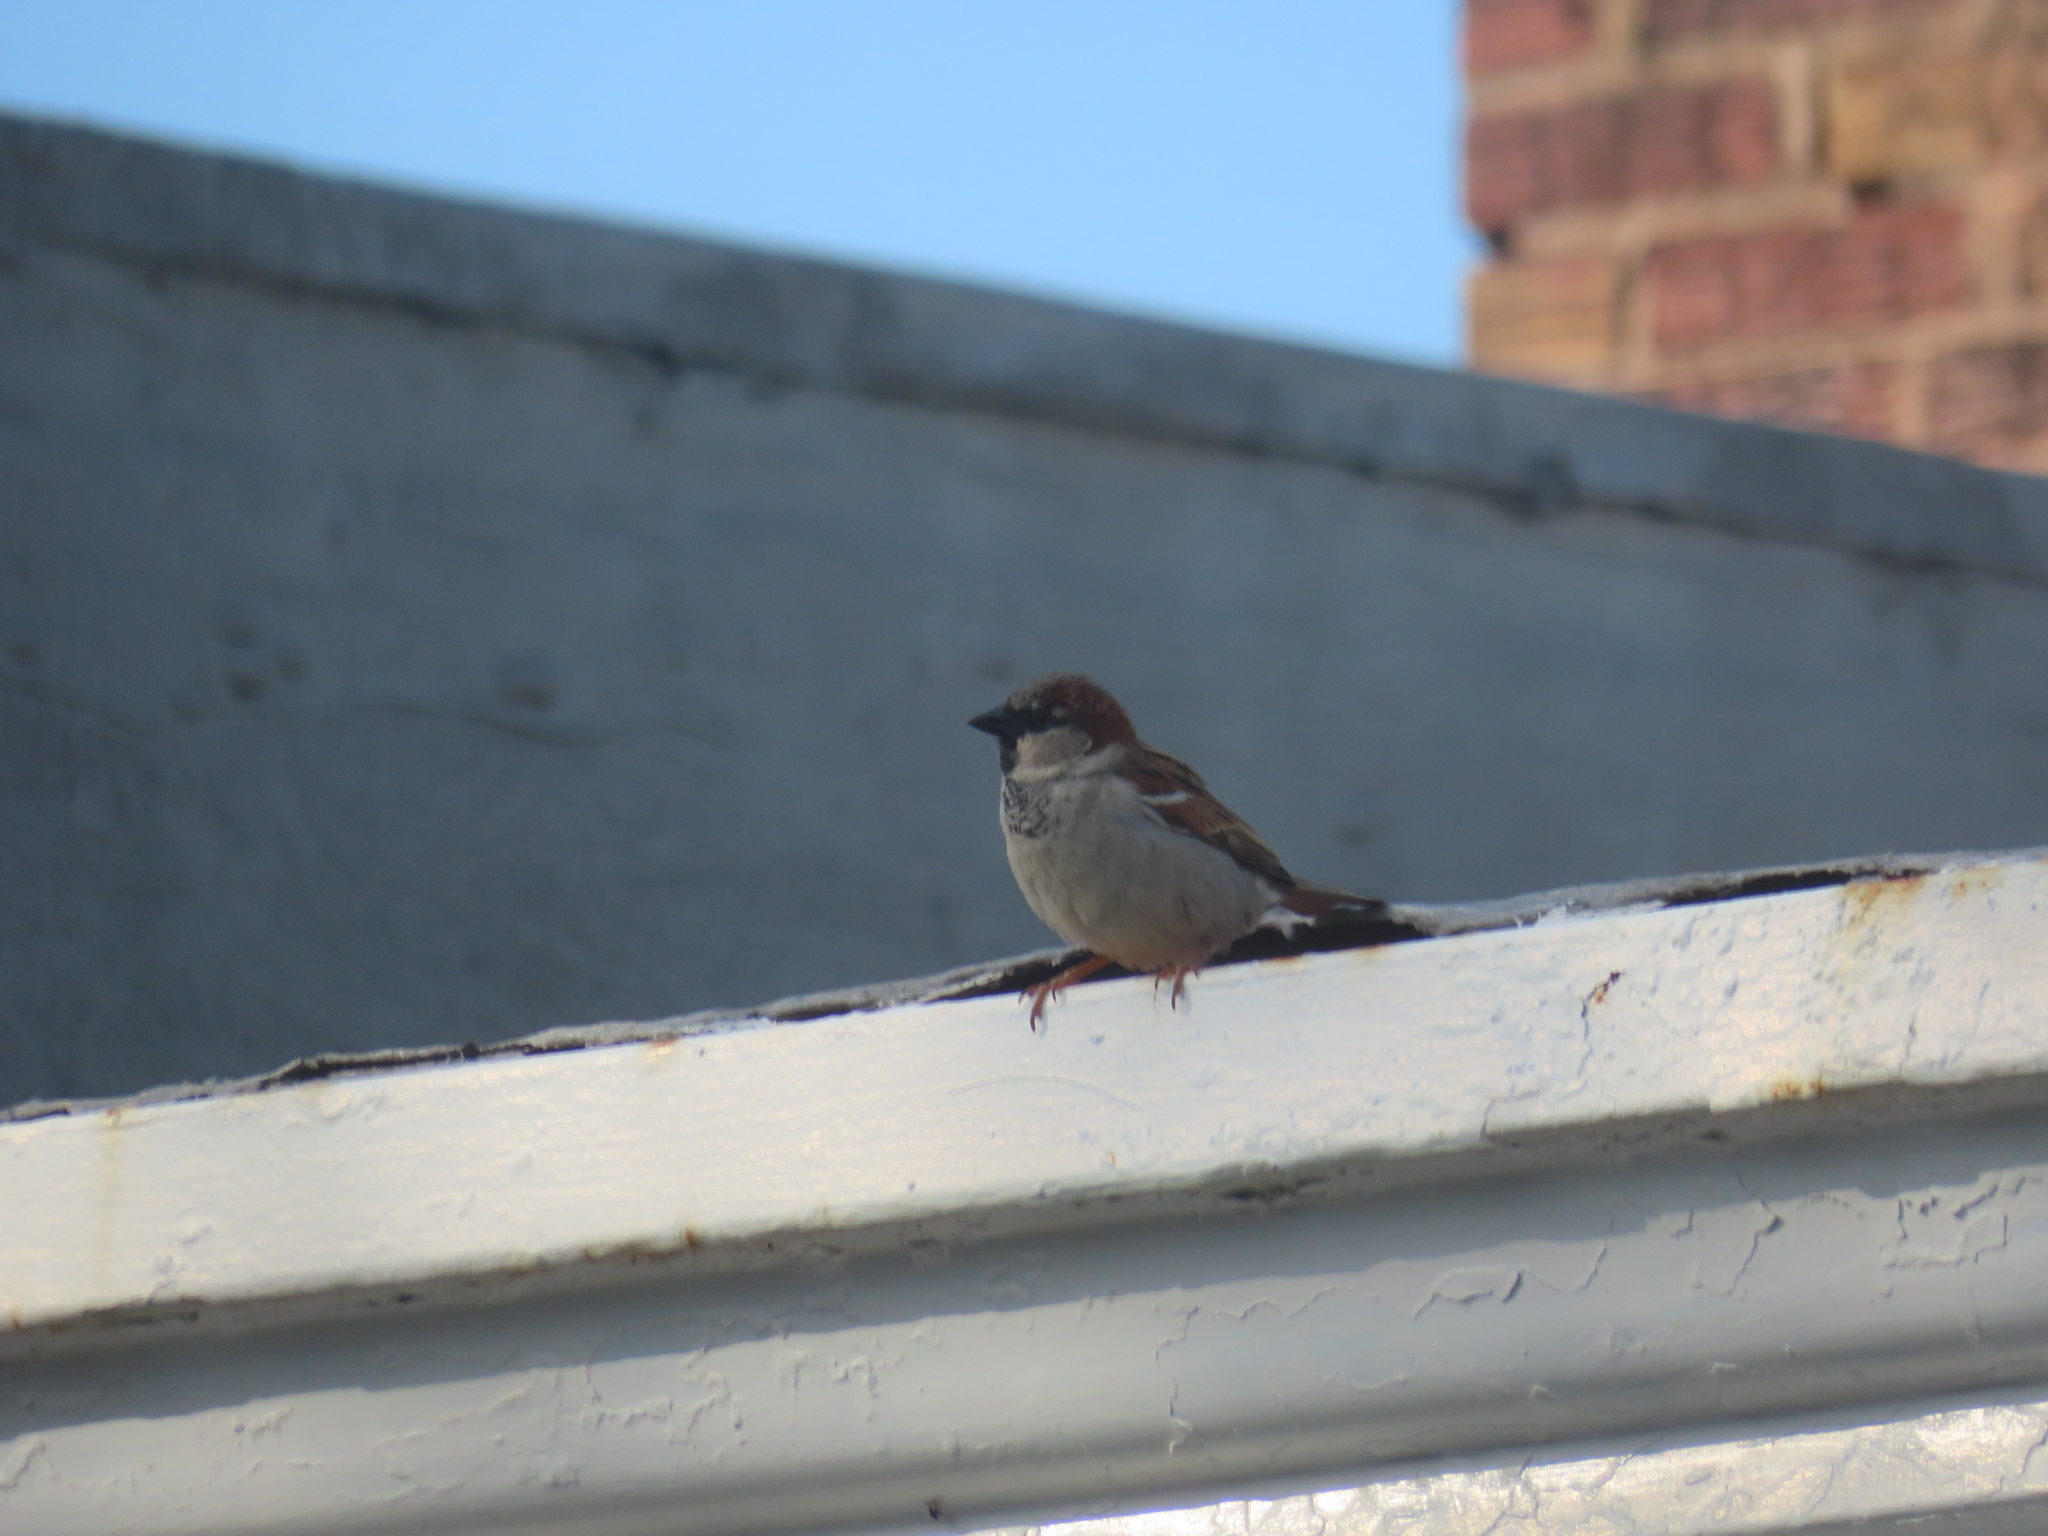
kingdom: Animalia
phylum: Chordata
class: Aves
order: Passeriformes
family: Passeridae
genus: Passer
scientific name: Passer domesticus
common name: House sparrow
